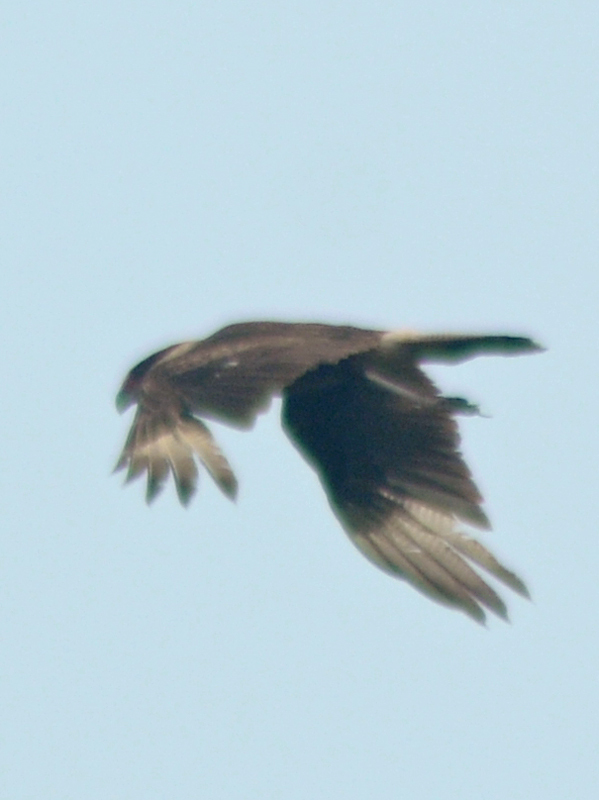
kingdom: Animalia
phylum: Chordata
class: Aves
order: Falconiformes
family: Falconidae
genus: Caracara
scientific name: Caracara plancus
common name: Southern caracara
